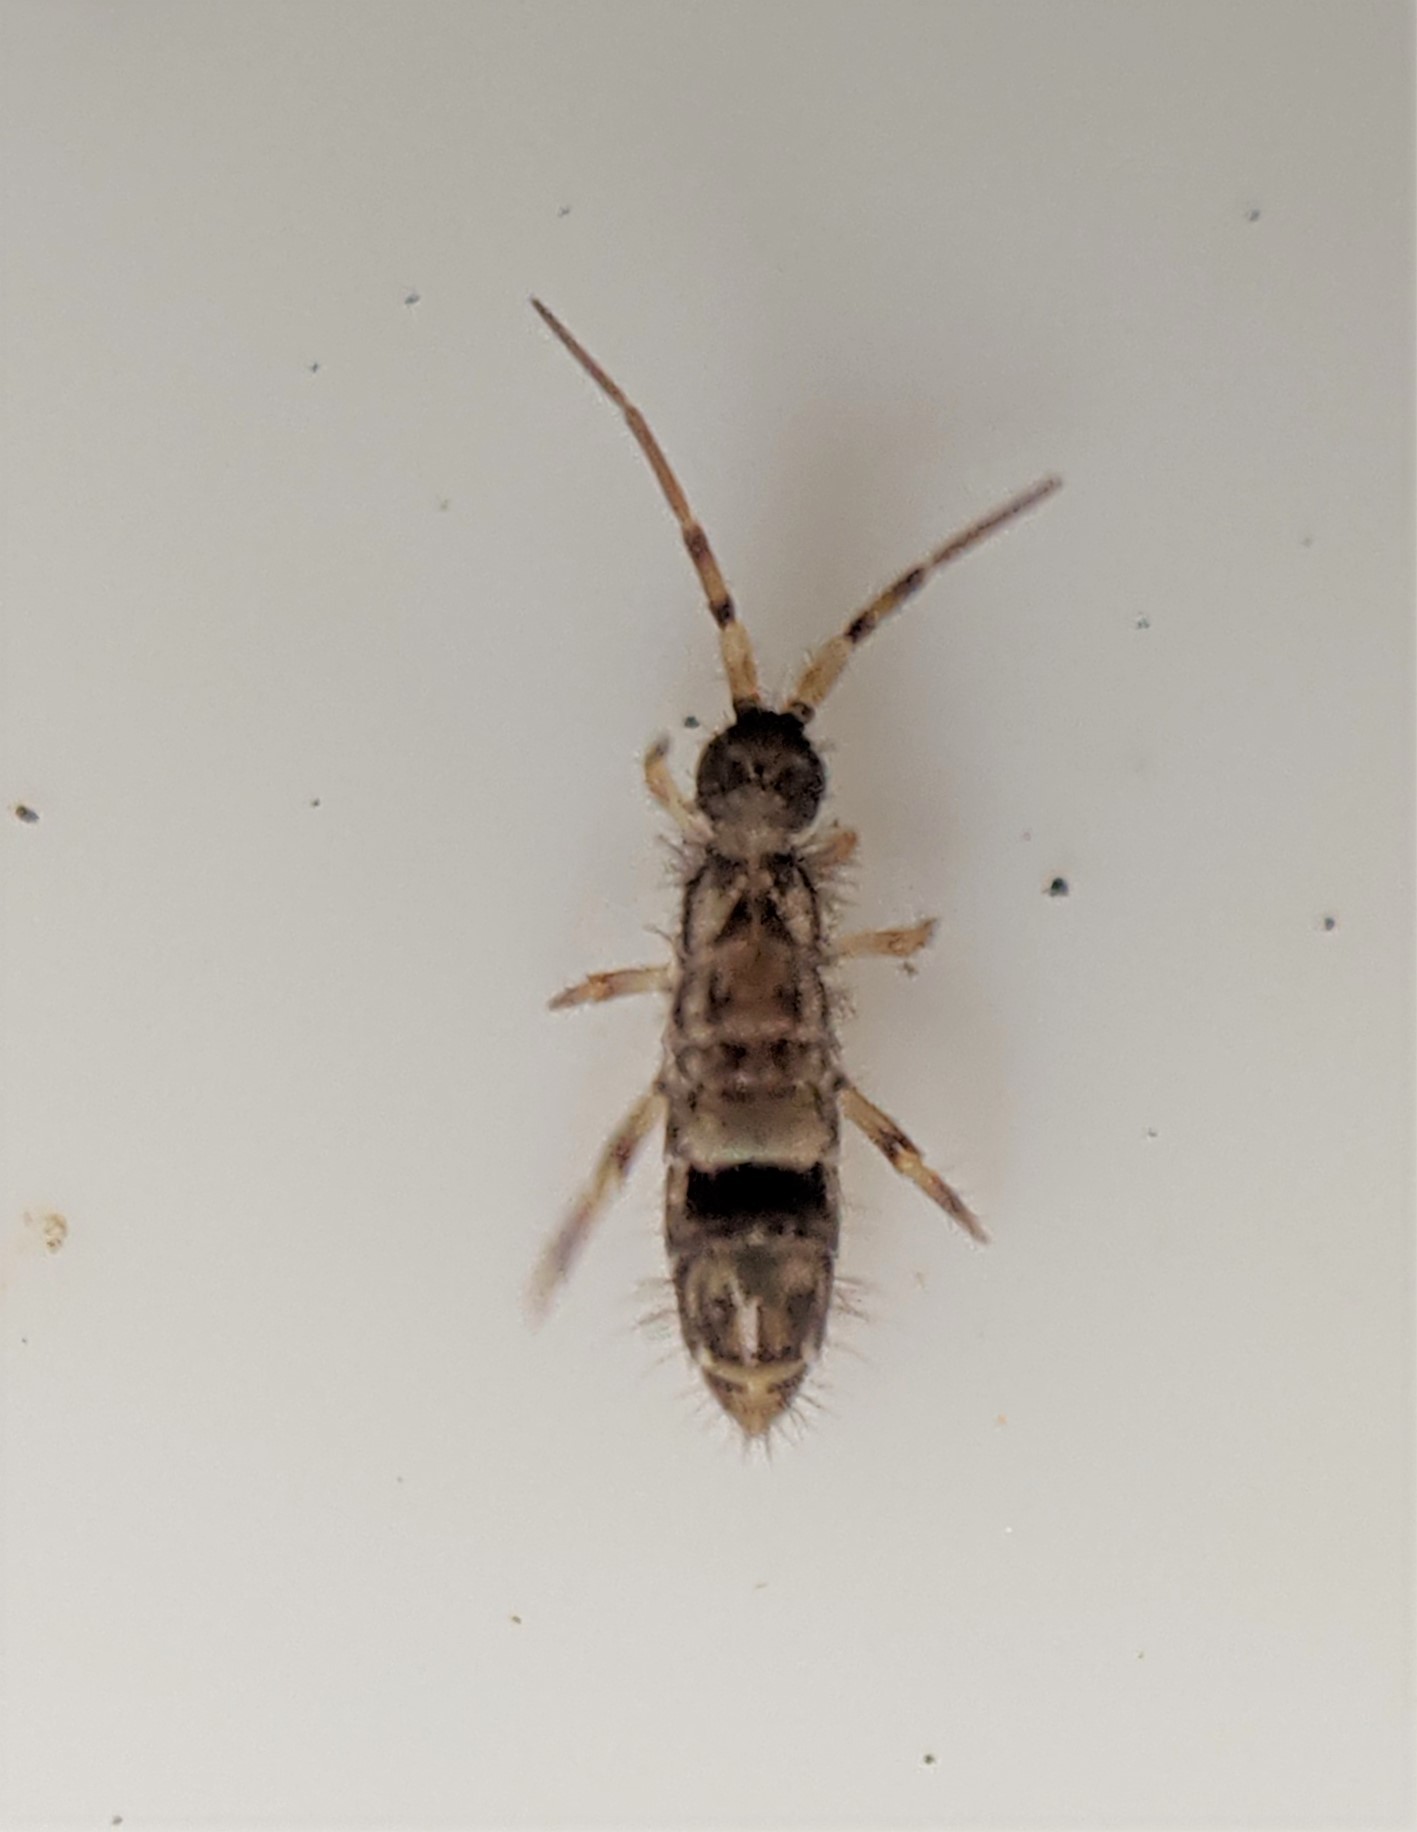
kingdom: Animalia
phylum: Arthropoda
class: Collembola
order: Entomobryomorpha
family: Orchesellidae
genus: Orchesella
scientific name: Orchesella cincta
